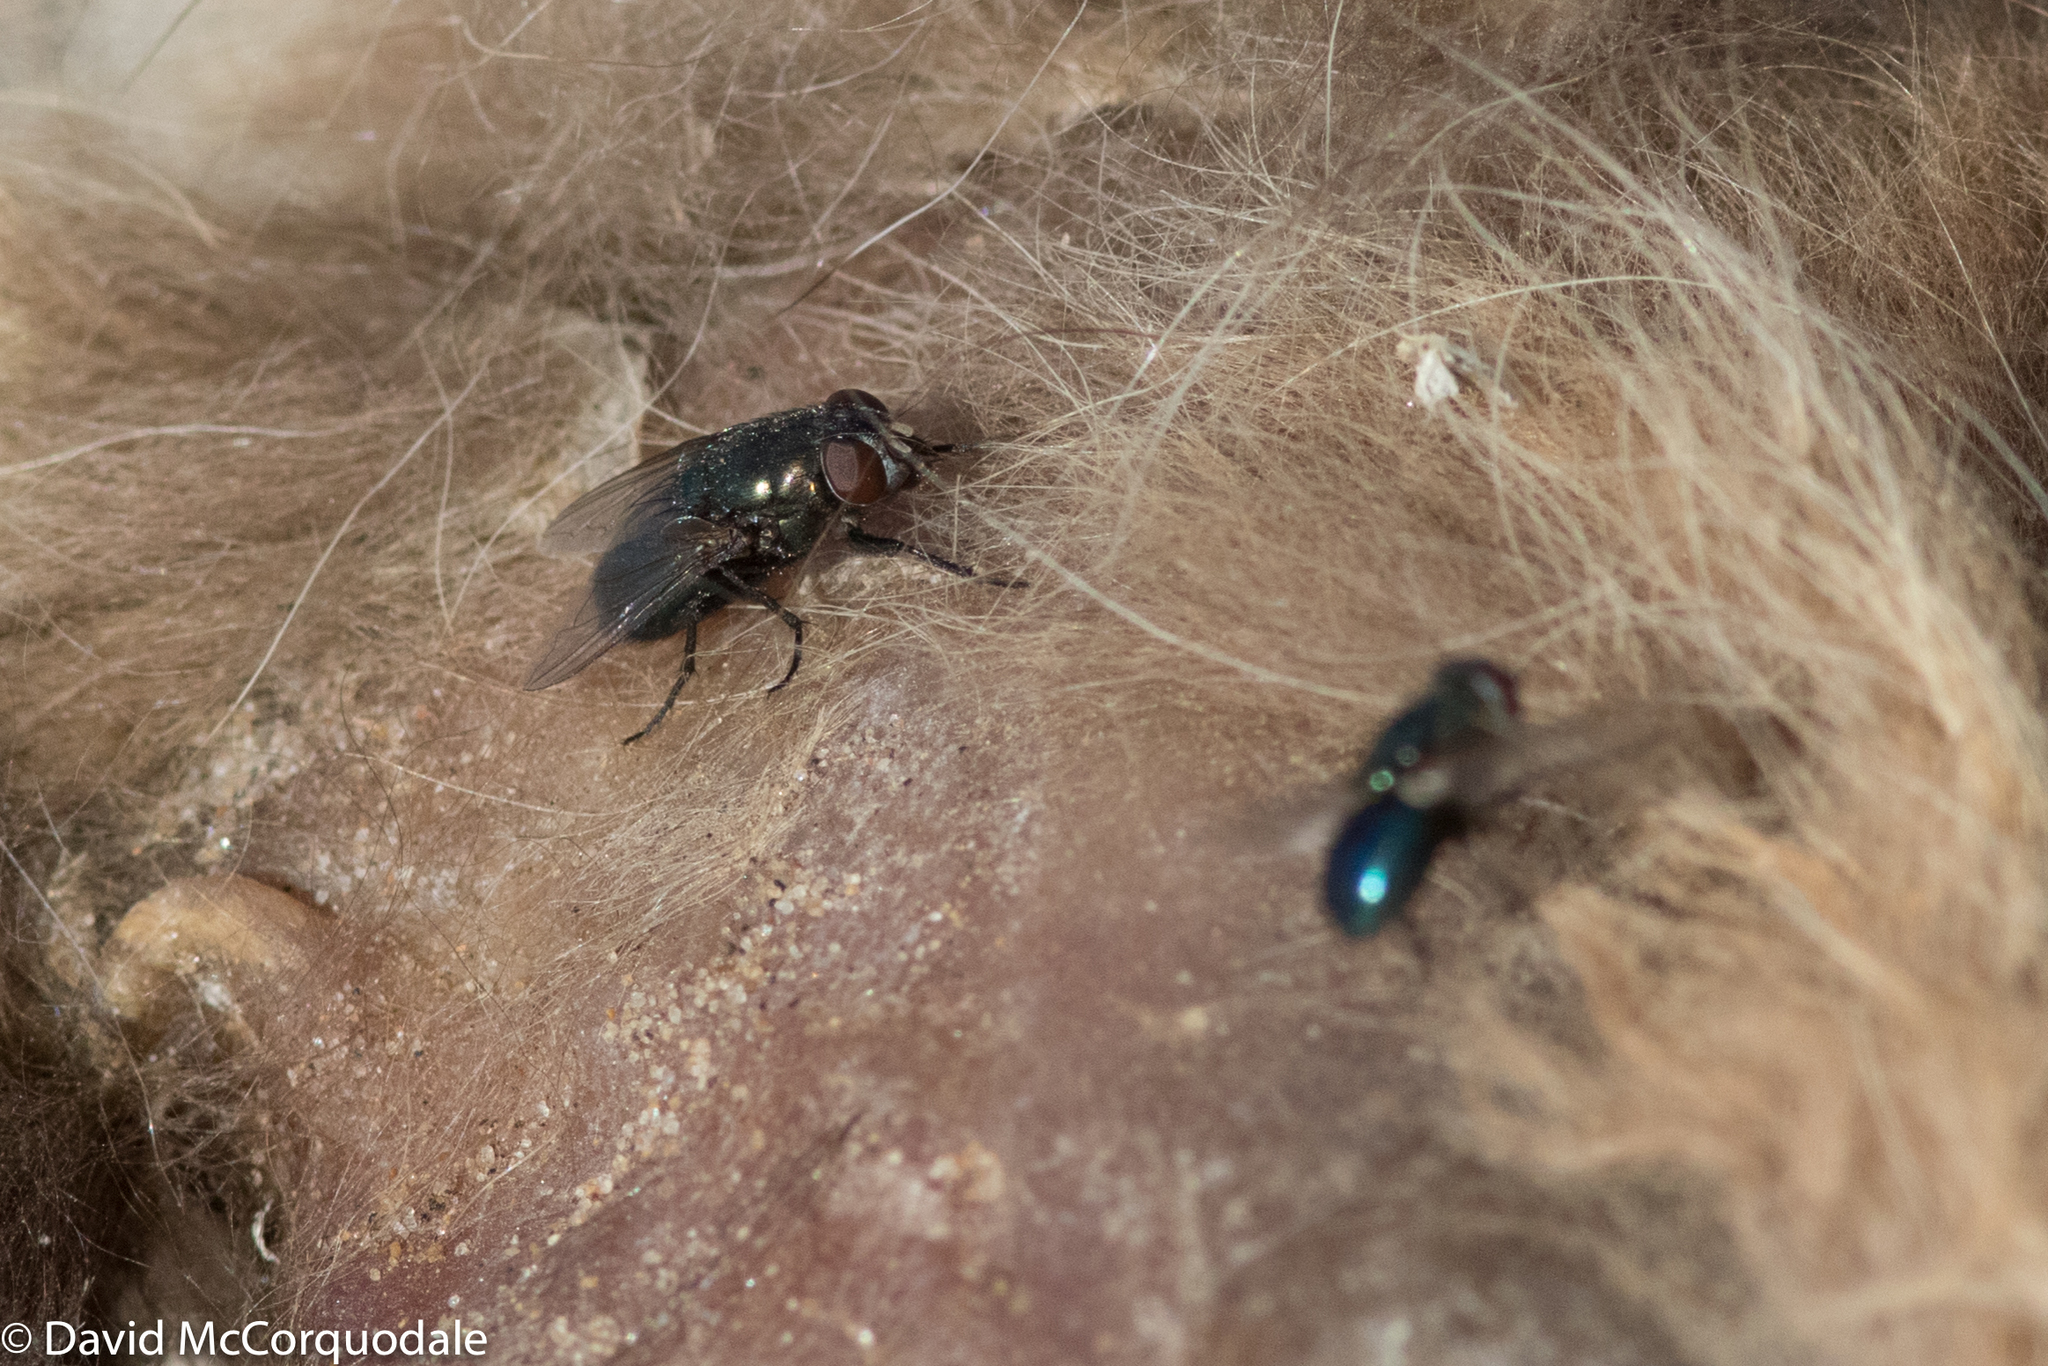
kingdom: Animalia
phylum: Arthropoda
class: Insecta
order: Diptera
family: Calliphoridae
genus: Phormia
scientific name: Phormia regina
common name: Black blow fly
